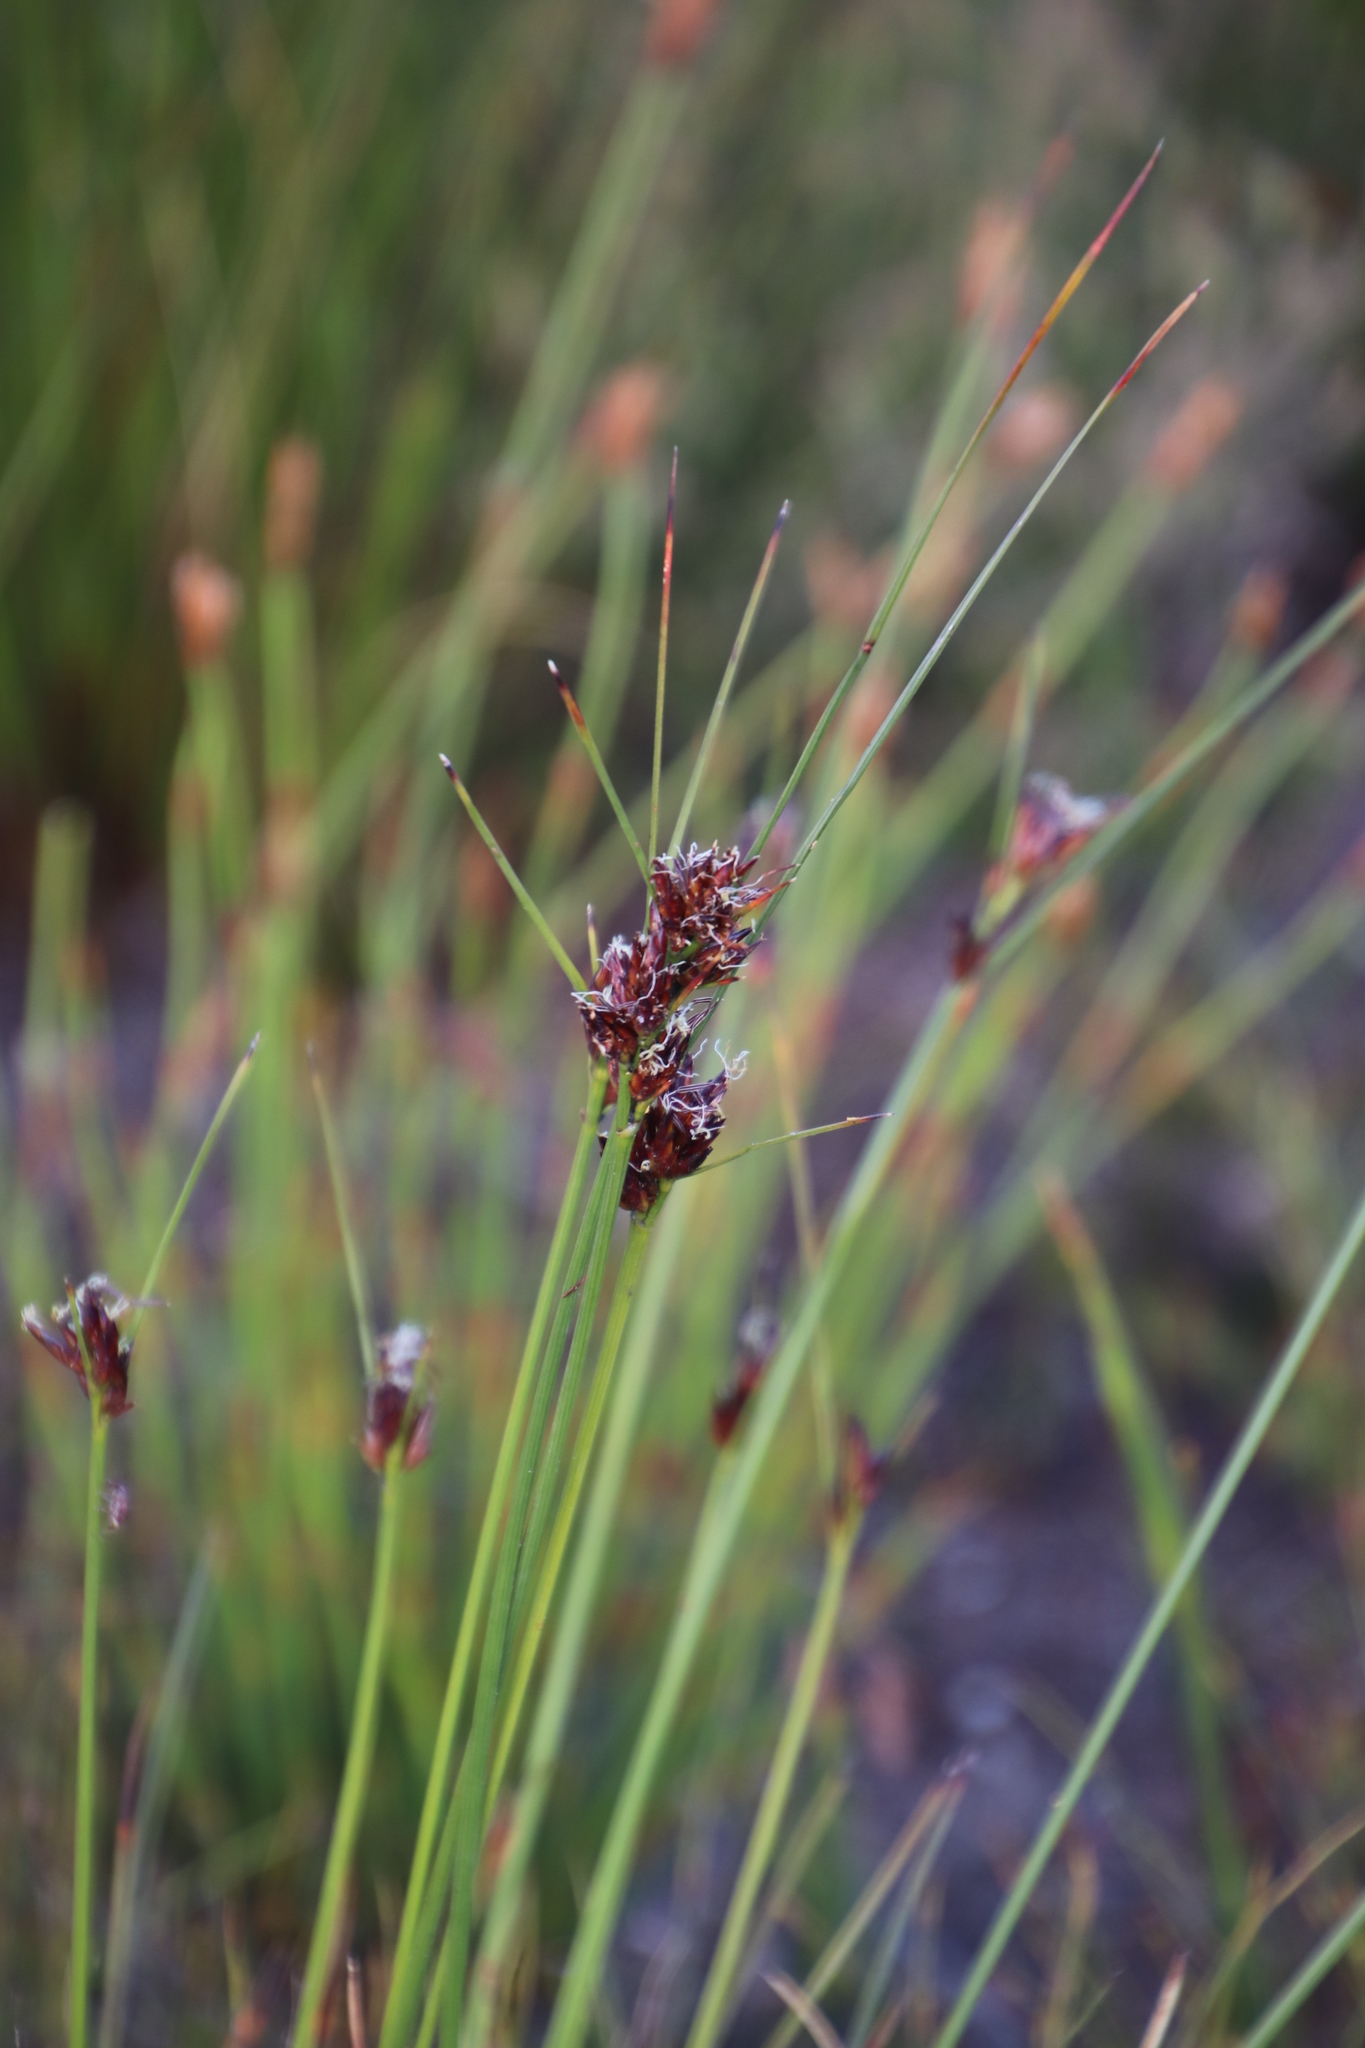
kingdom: Plantae
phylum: Tracheophyta
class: Liliopsida
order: Poales
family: Cyperaceae
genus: Schoenus
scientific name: Schoenus compar
